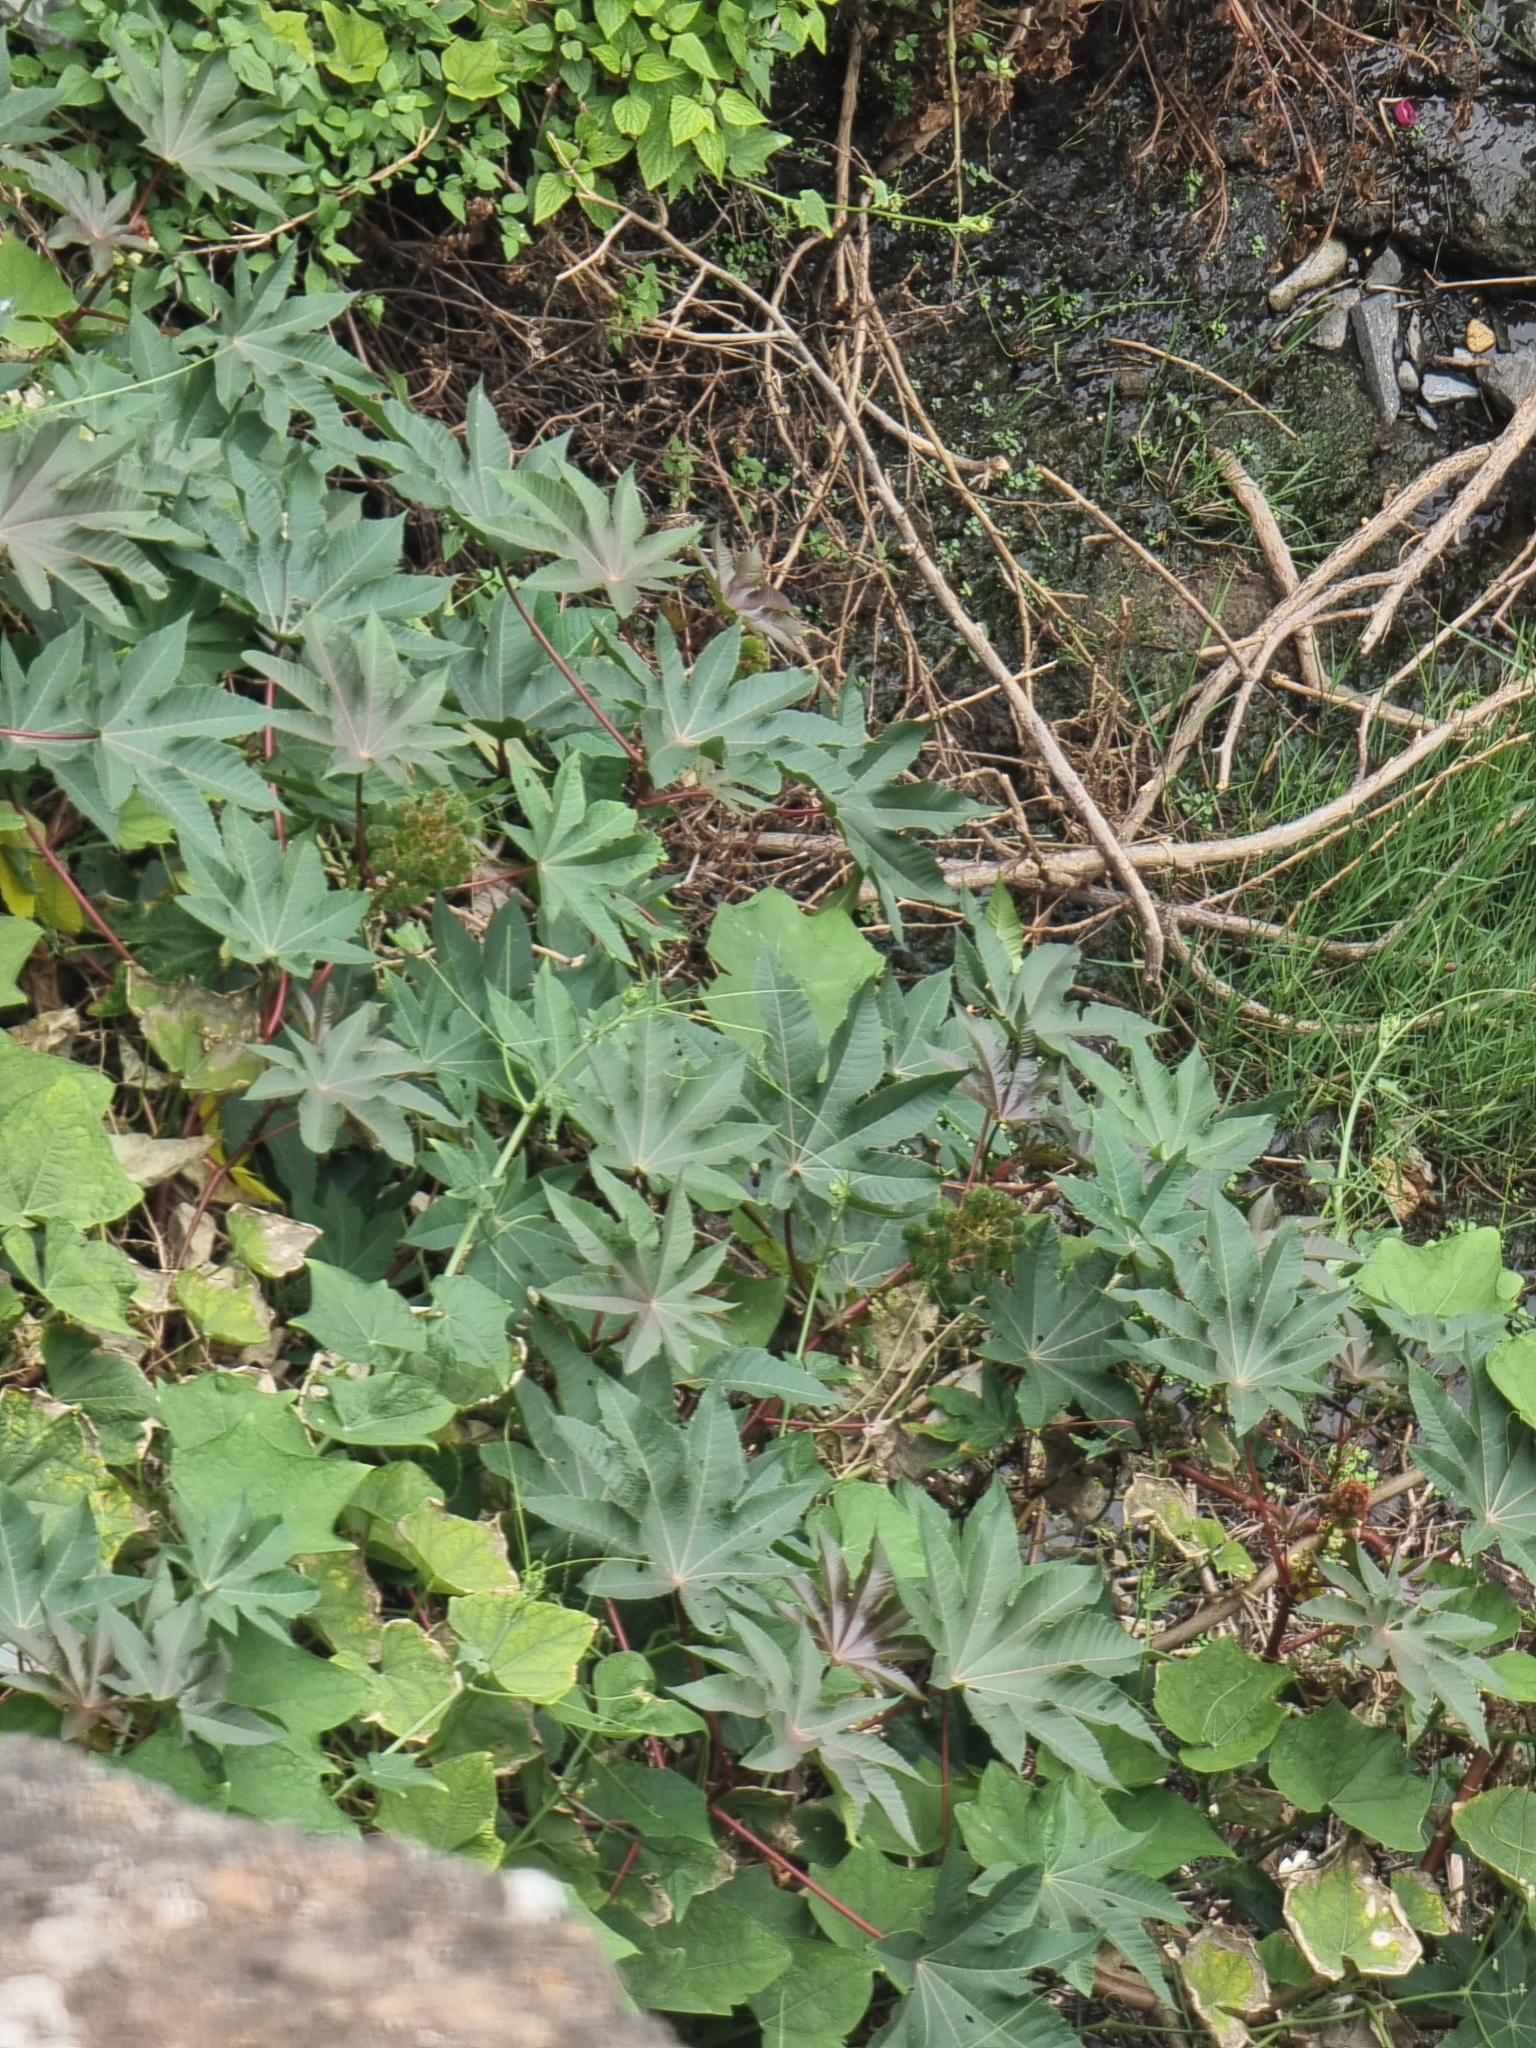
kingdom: Plantae
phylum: Tracheophyta
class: Magnoliopsida
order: Malpighiales
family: Euphorbiaceae
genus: Ricinus
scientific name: Ricinus communis
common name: Castor-oil-plant
